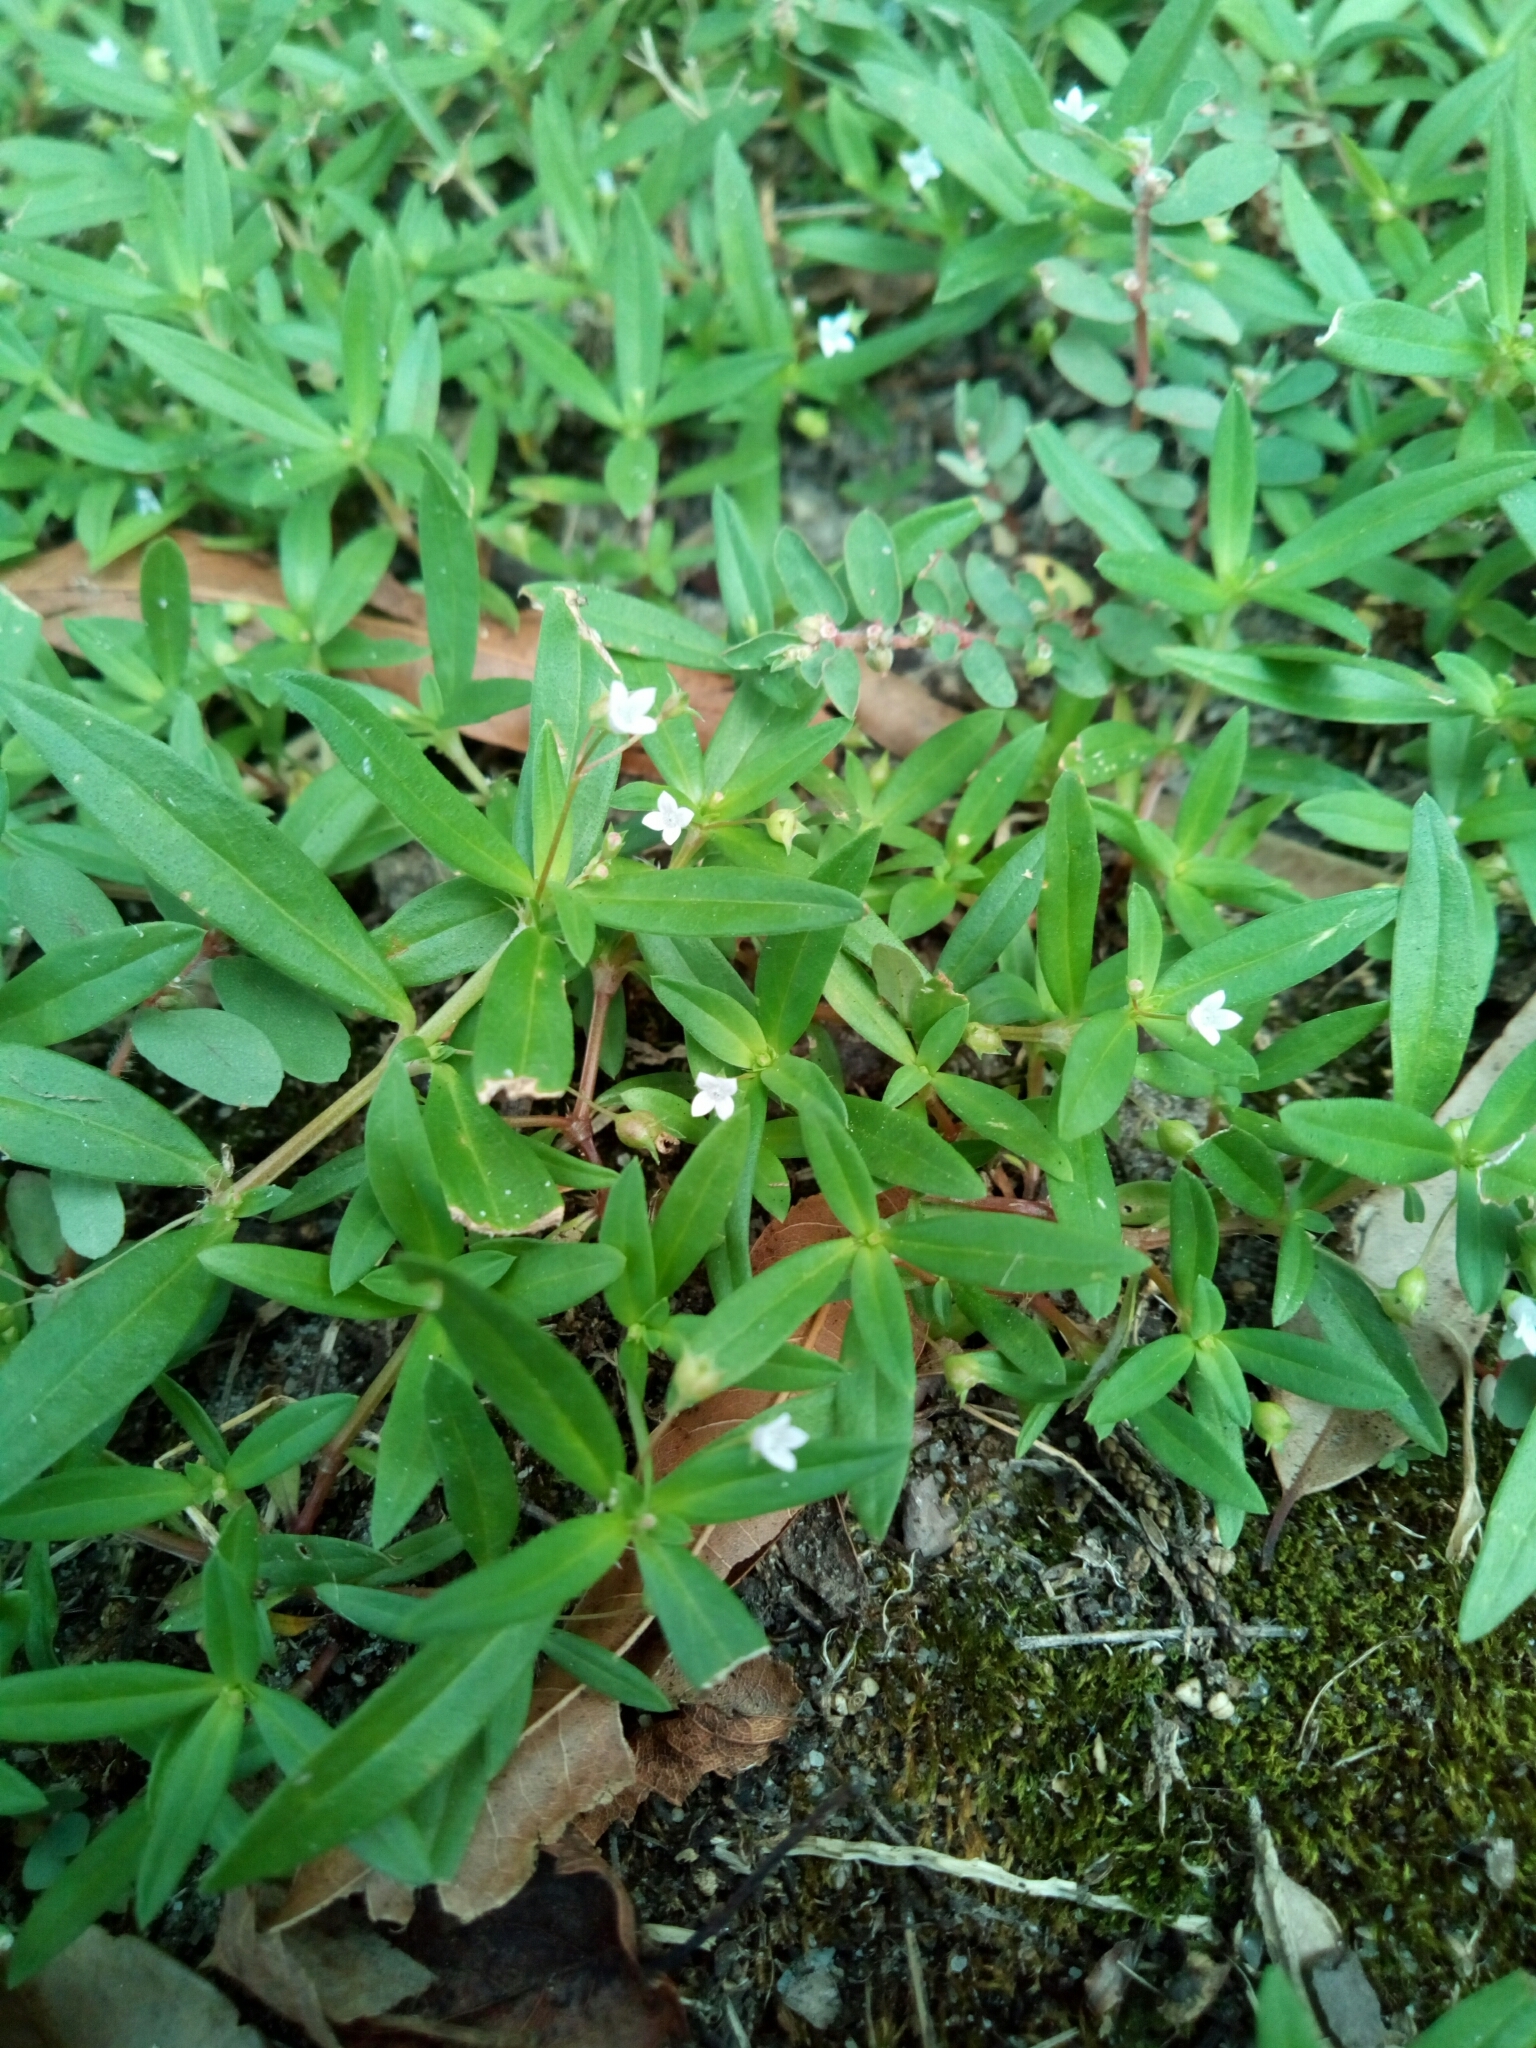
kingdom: Plantae
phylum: Tracheophyta
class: Magnoliopsida
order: Gentianales
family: Rubiaceae
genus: Hexasepalum
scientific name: Hexasepalum teres
